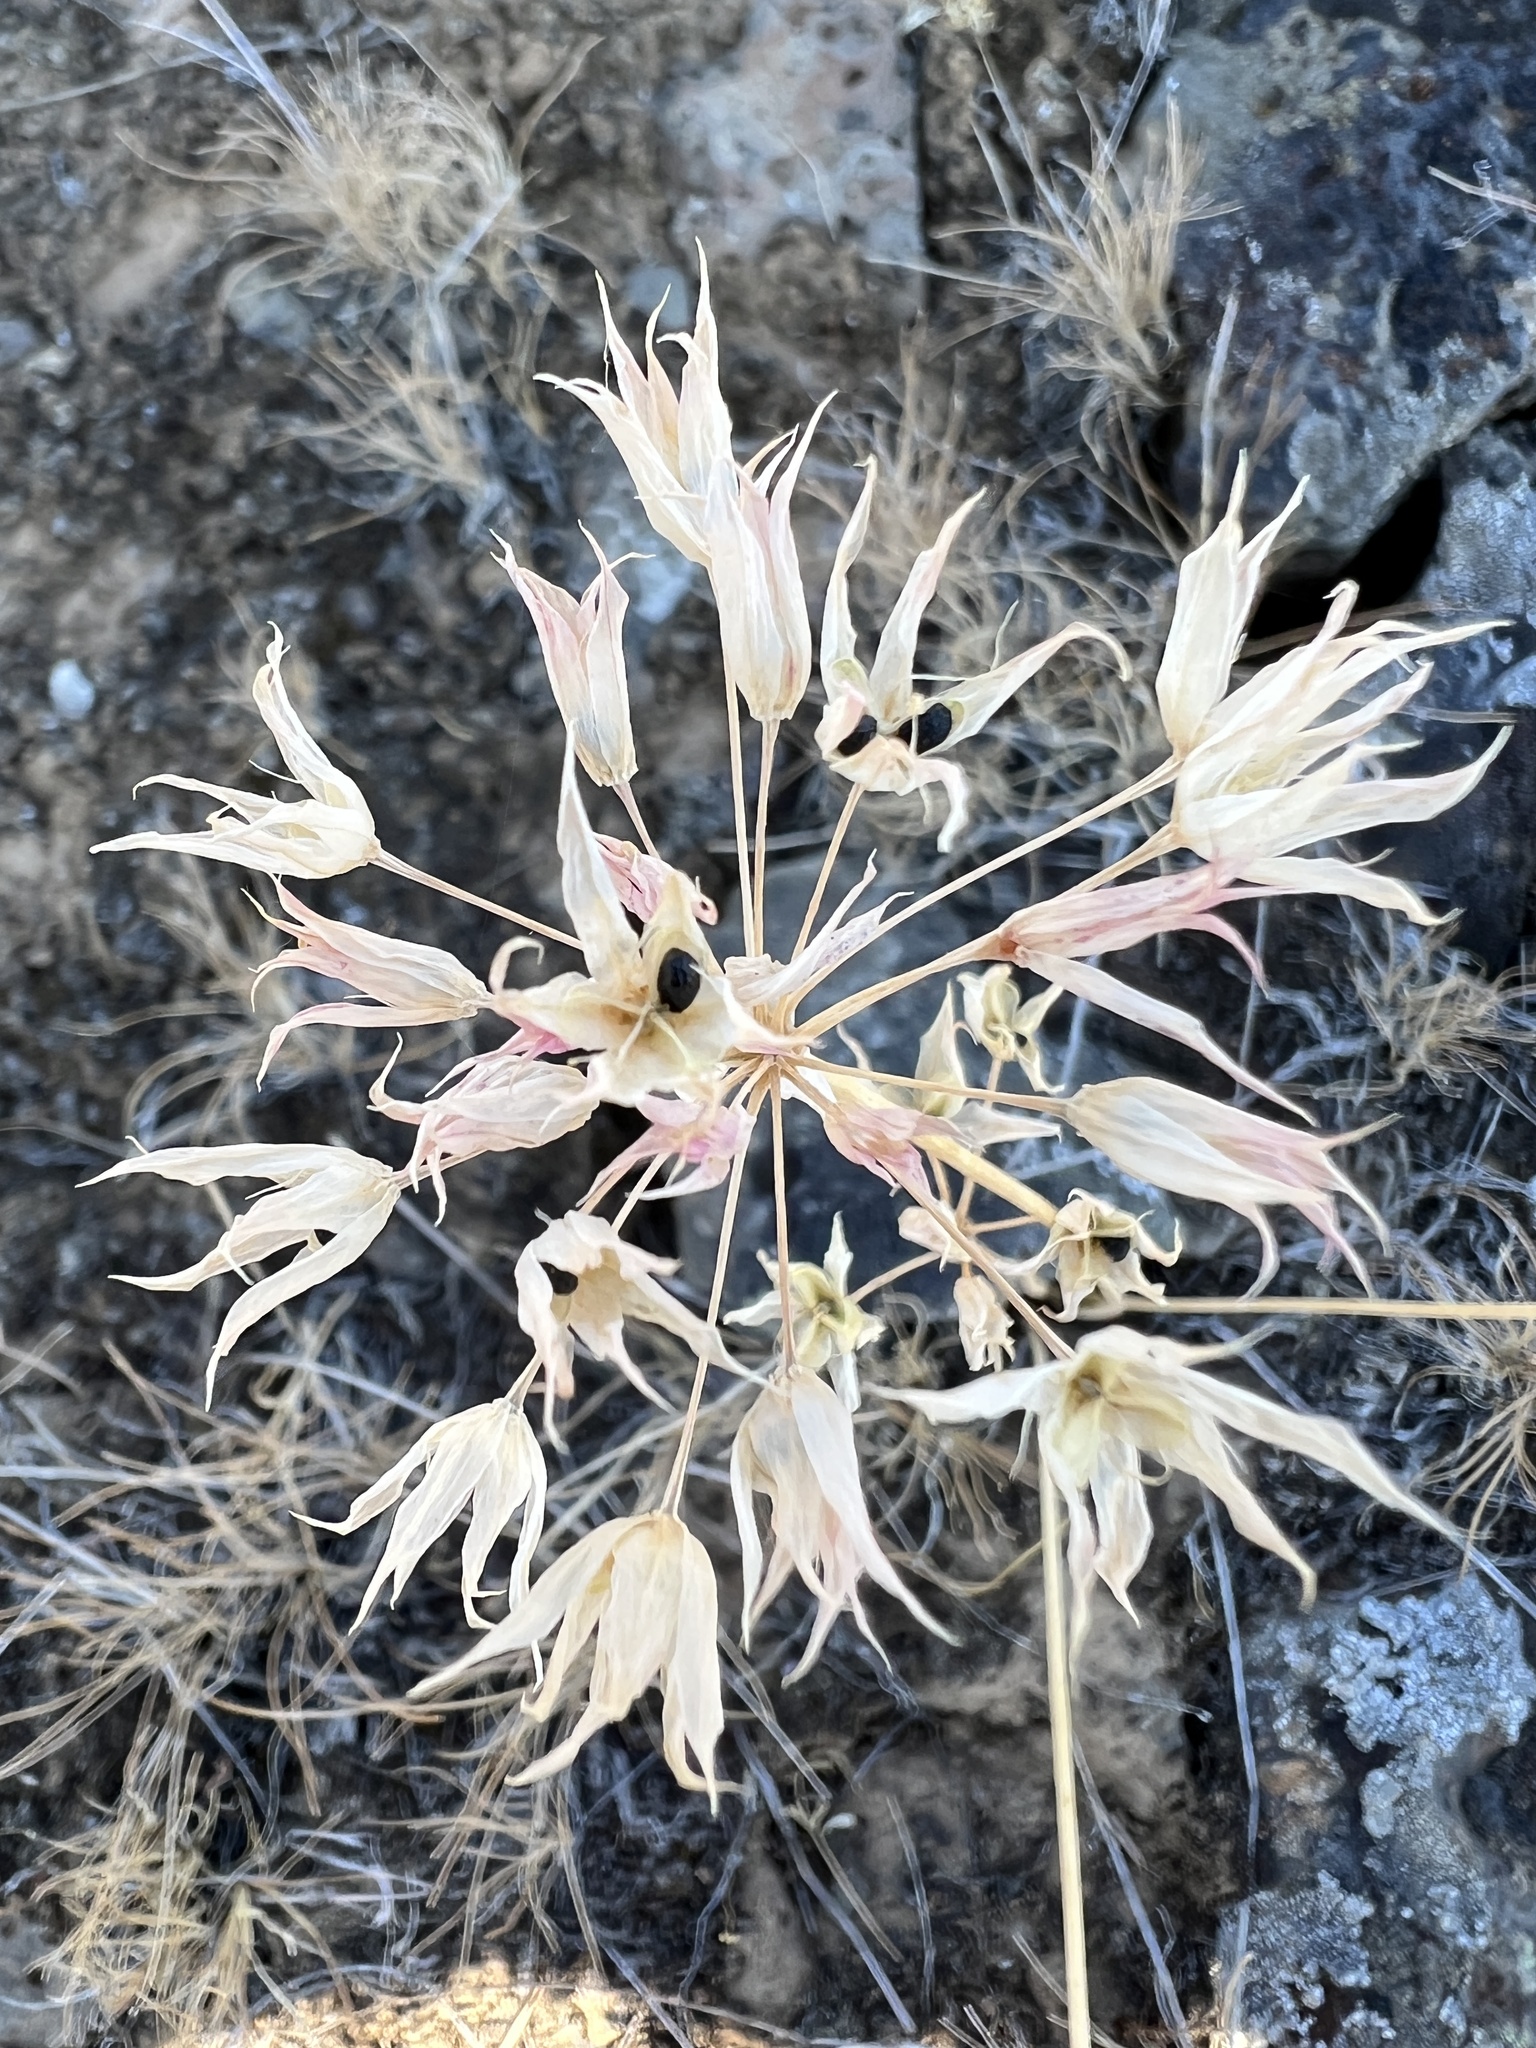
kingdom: Plantae
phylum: Tracheophyta
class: Liliopsida
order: Asparagales
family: Amaryllidaceae
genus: Allium
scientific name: Allium acuminatum
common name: Hooker's onion
